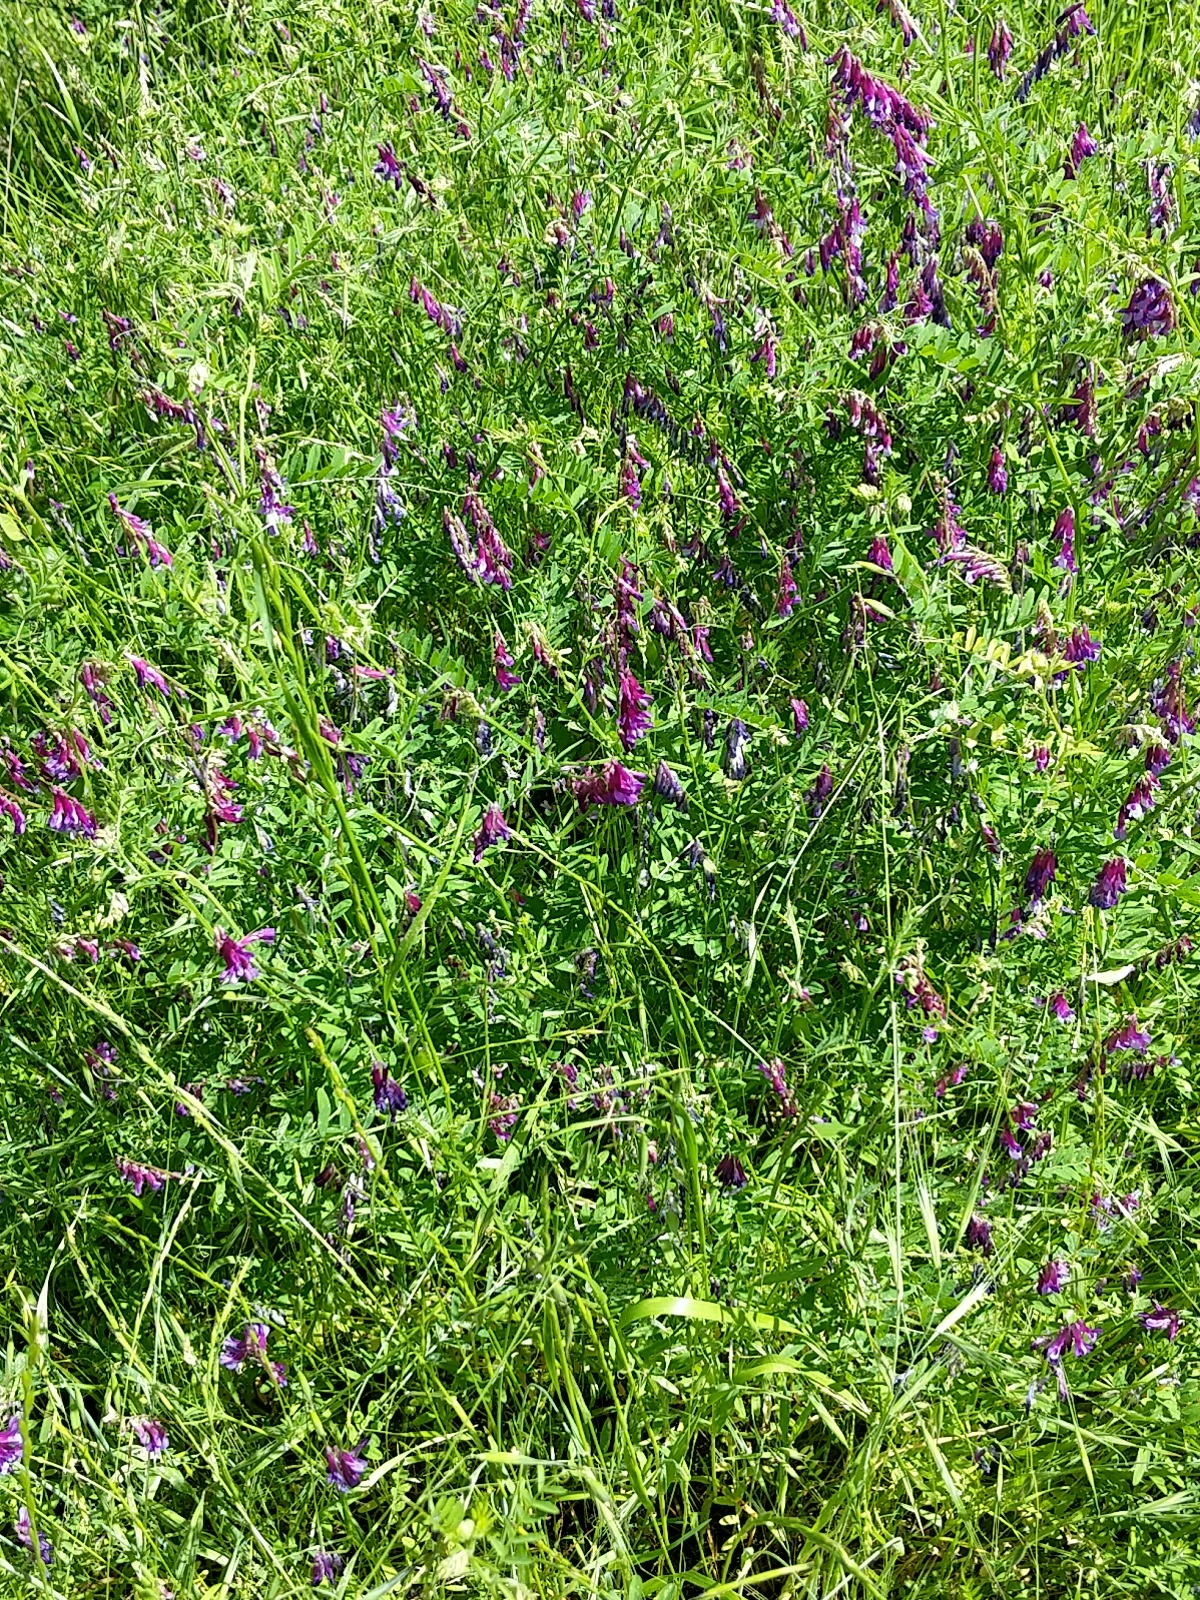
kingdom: Plantae
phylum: Tracheophyta
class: Magnoliopsida
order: Fabales
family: Fabaceae
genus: Vicia
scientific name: Vicia villosa
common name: Fodder vetch
